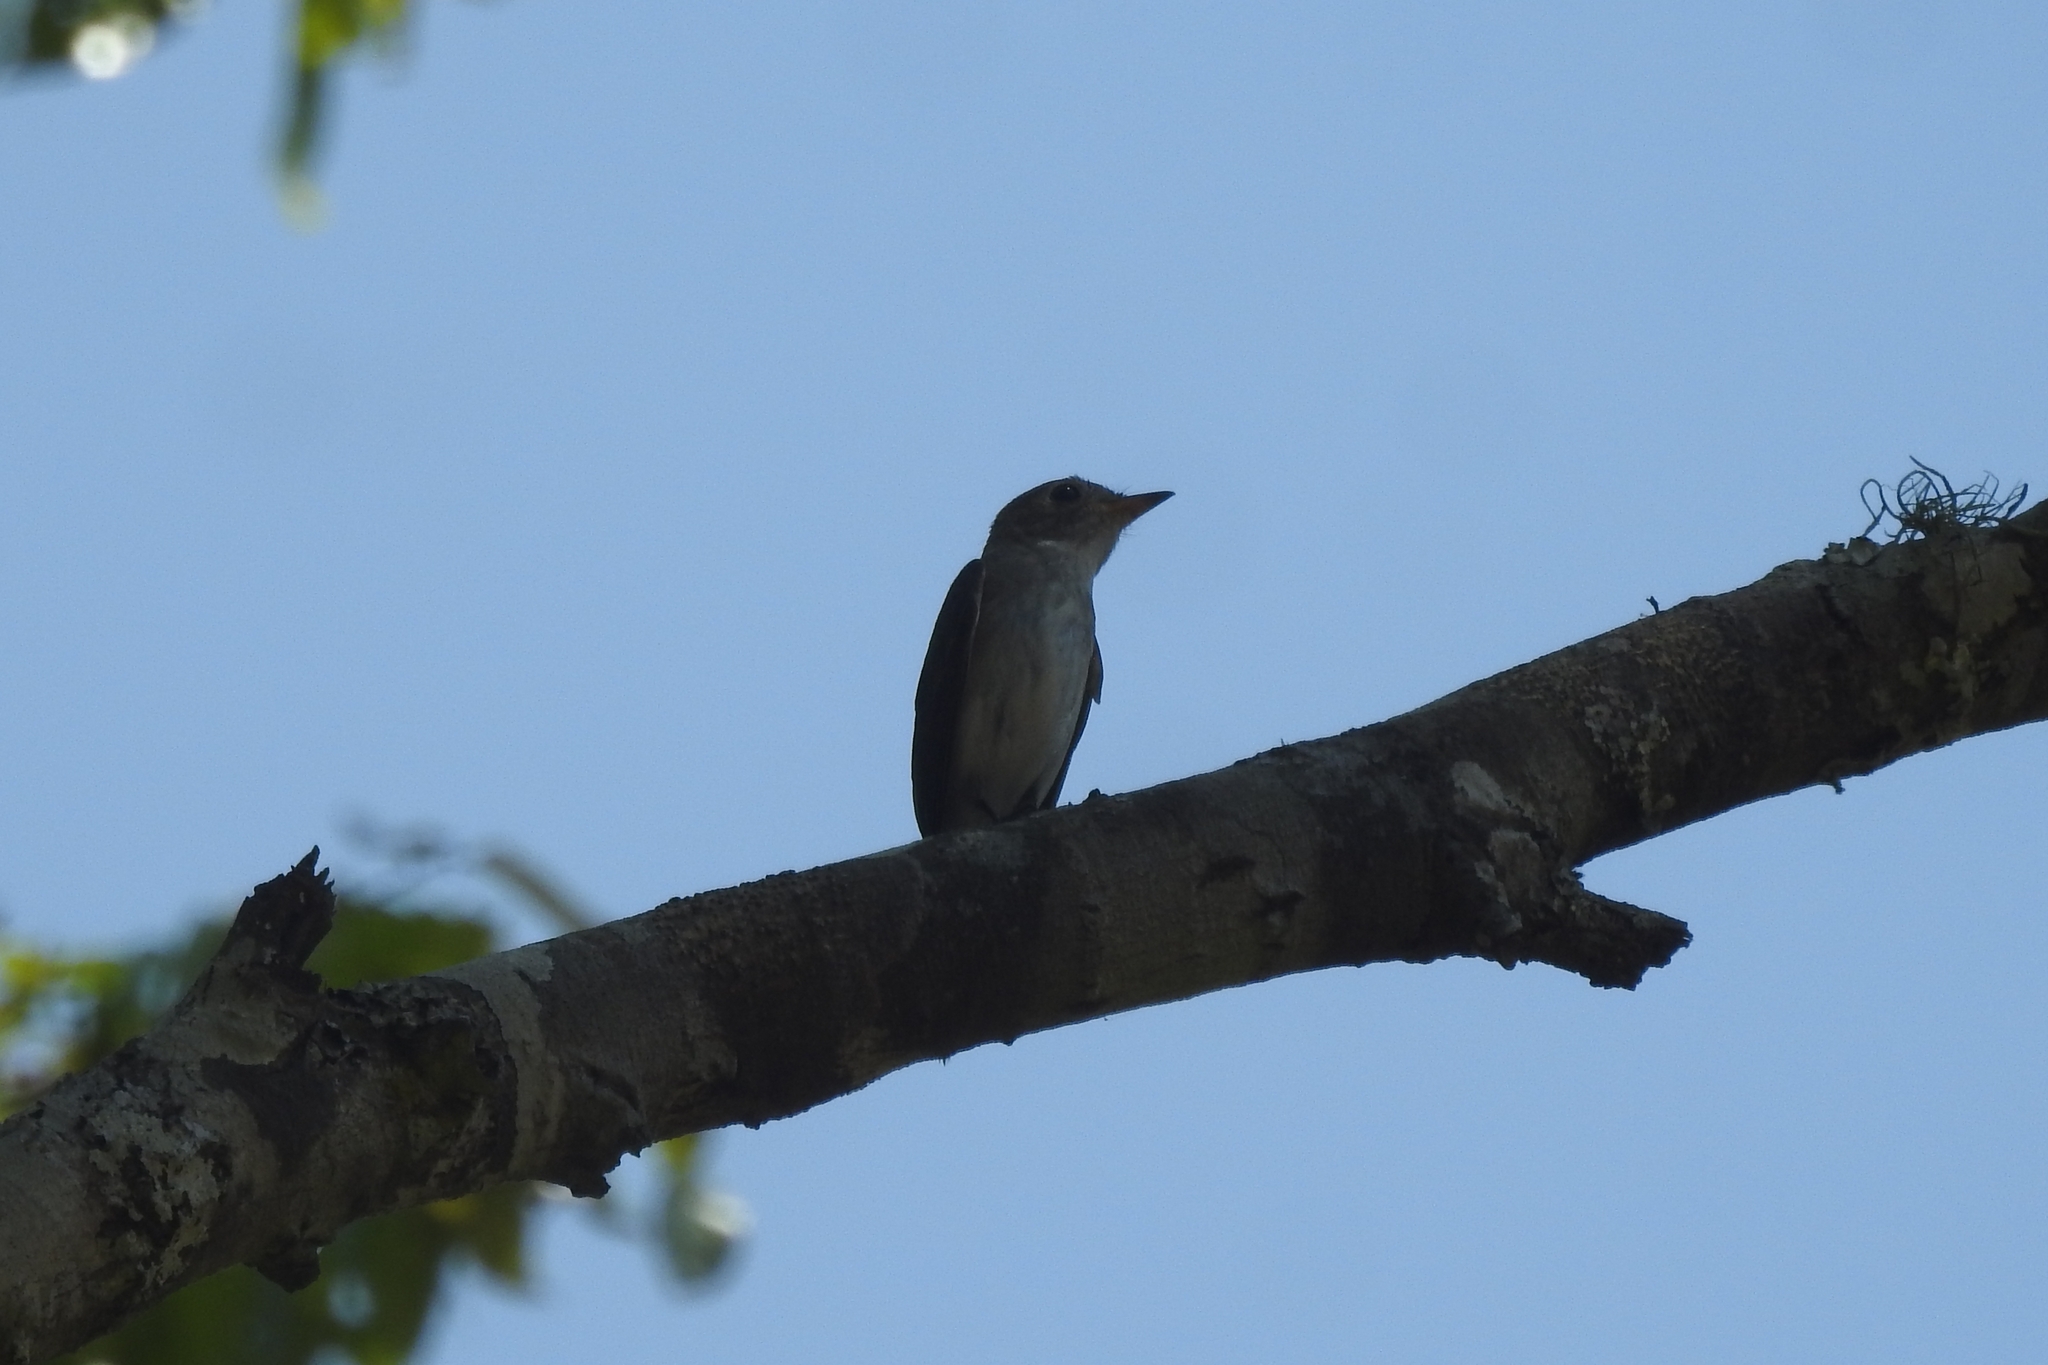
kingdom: Animalia
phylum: Chordata
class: Aves
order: Passeriformes
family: Muscicapidae
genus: Muscicapa
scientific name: Muscicapa latirostris
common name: Asian brown flycatcher
